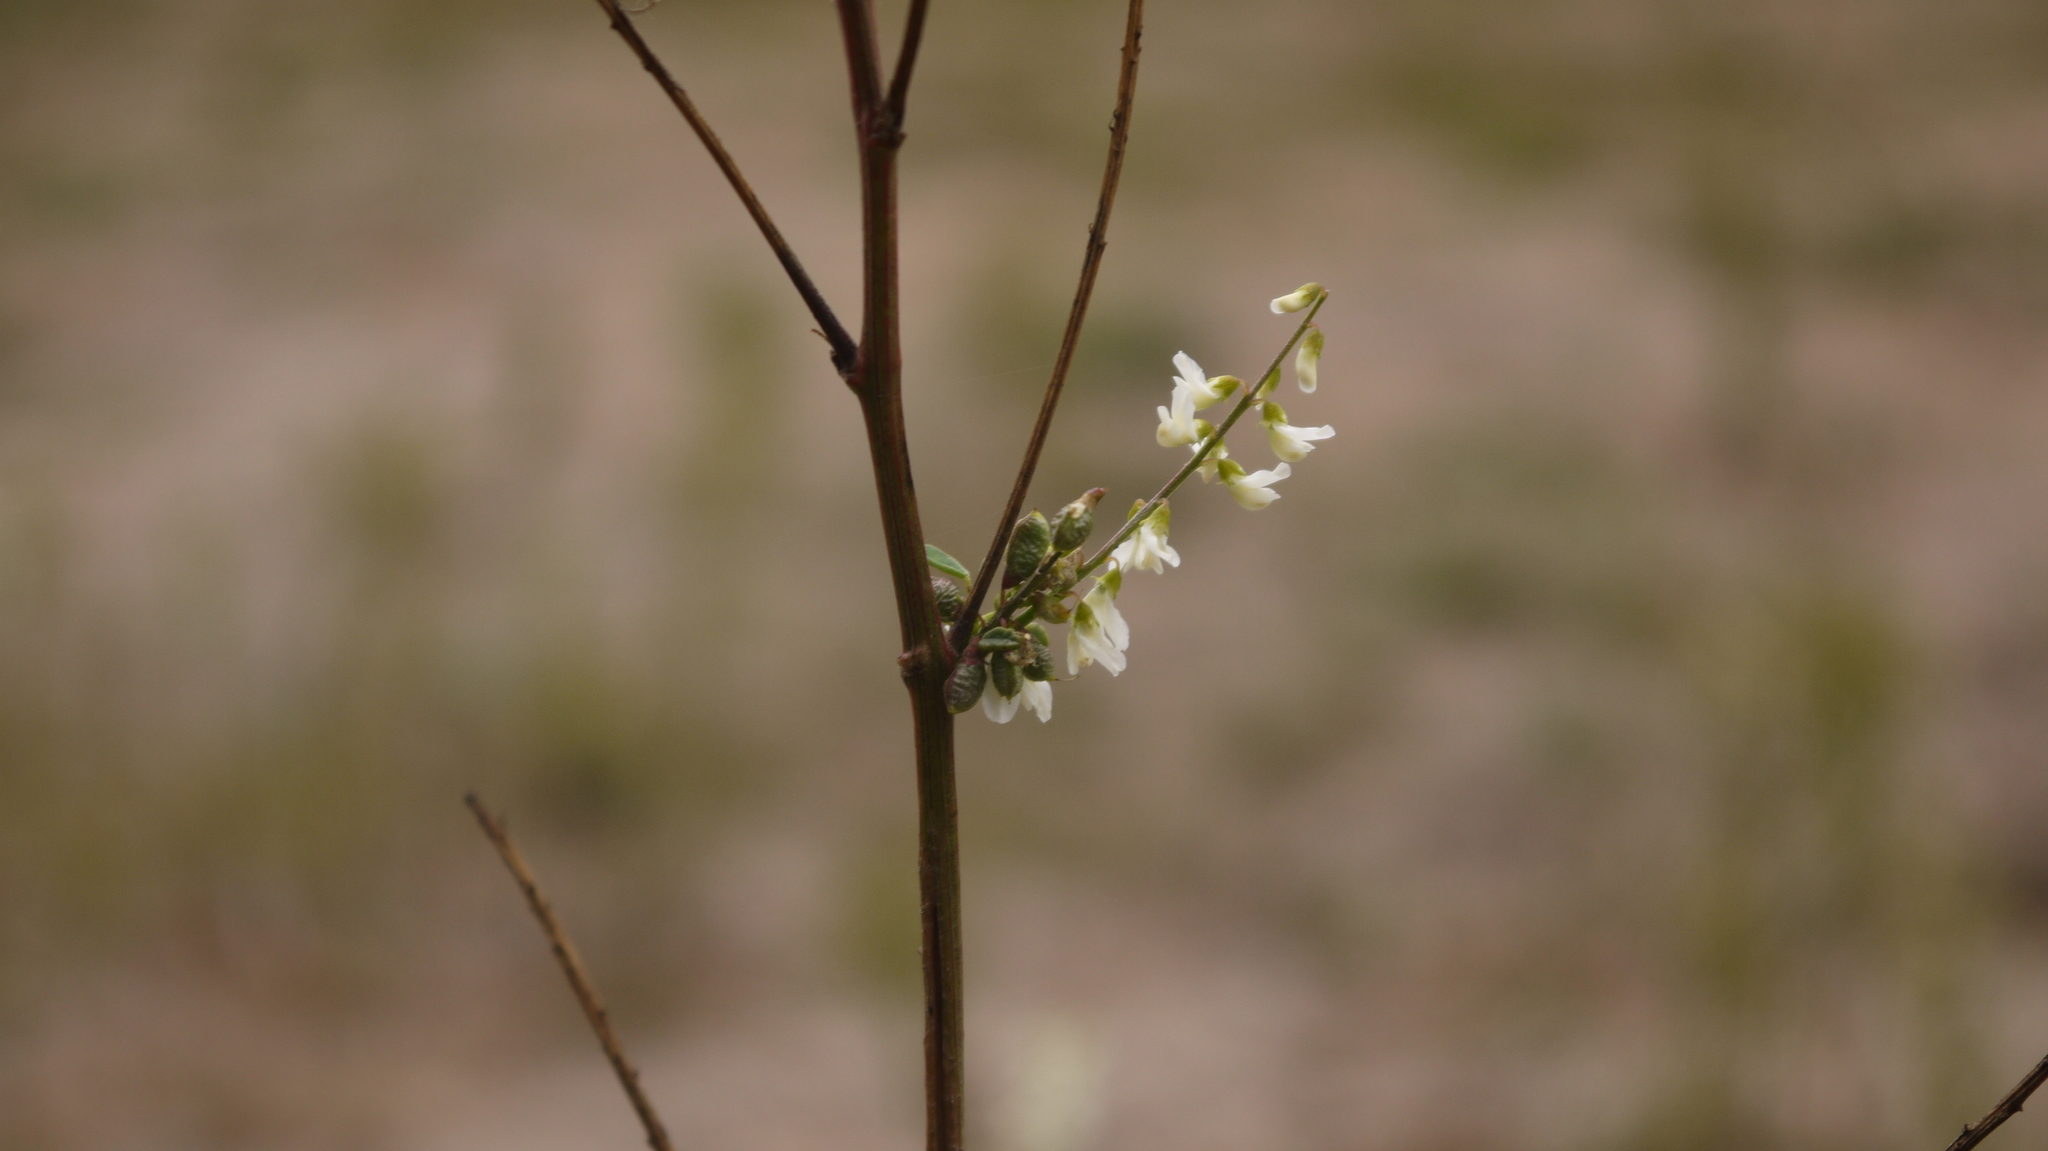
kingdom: Plantae
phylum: Tracheophyta
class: Magnoliopsida
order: Fabales
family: Fabaceae
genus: Melilotus
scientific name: Melilotus albus
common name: White melilot
